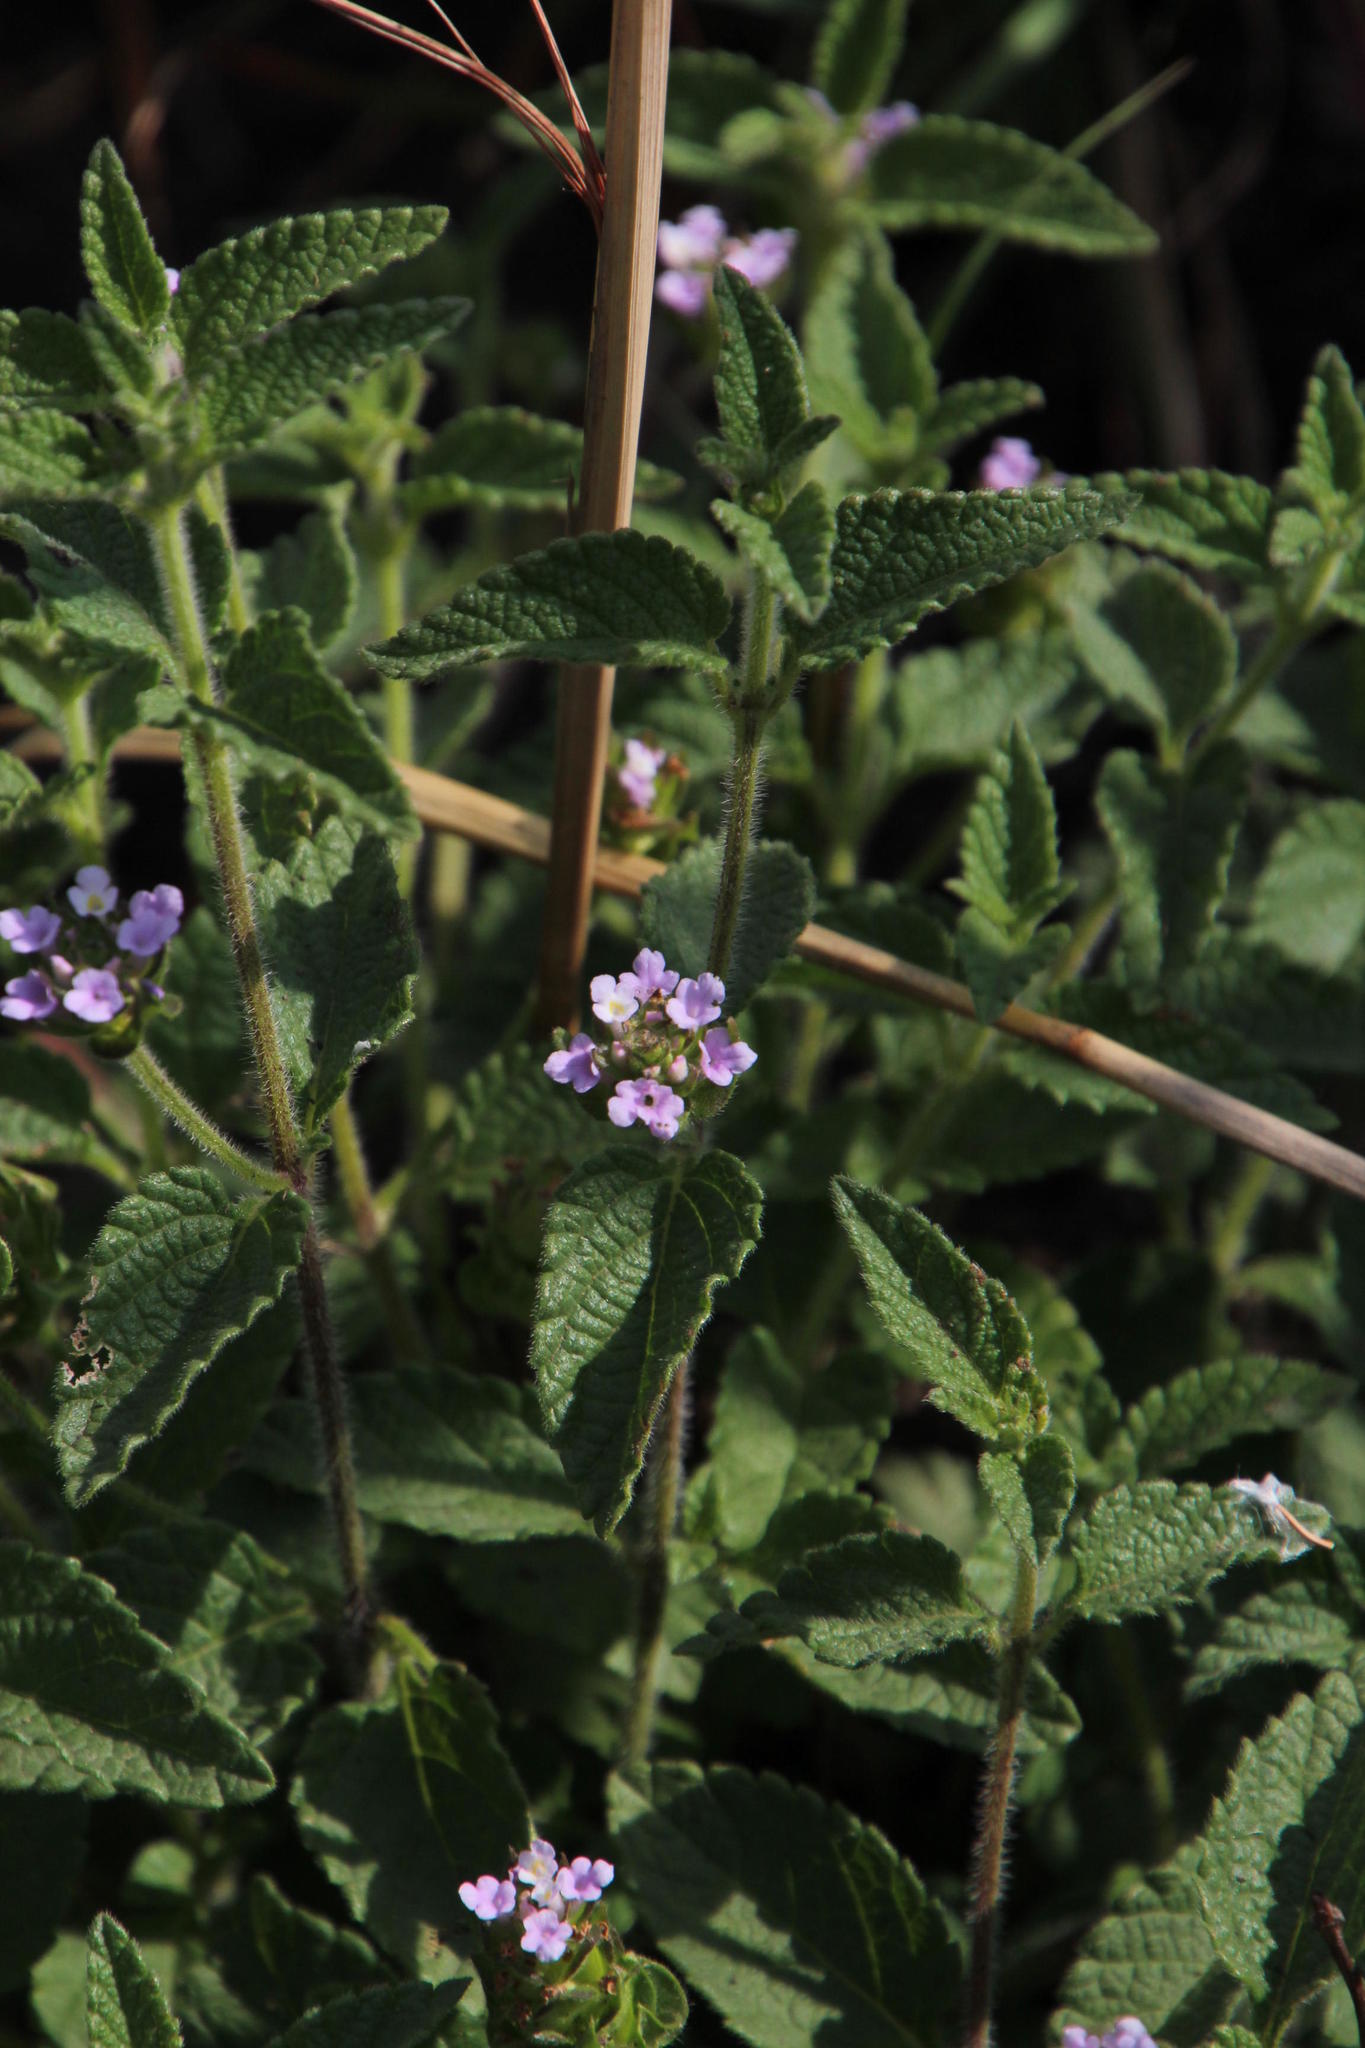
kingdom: Plantae
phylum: Tracheophyta
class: Magnoliopsida
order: Lamiales
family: Verbenaceae
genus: Lantana
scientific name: Lantana rugosa
